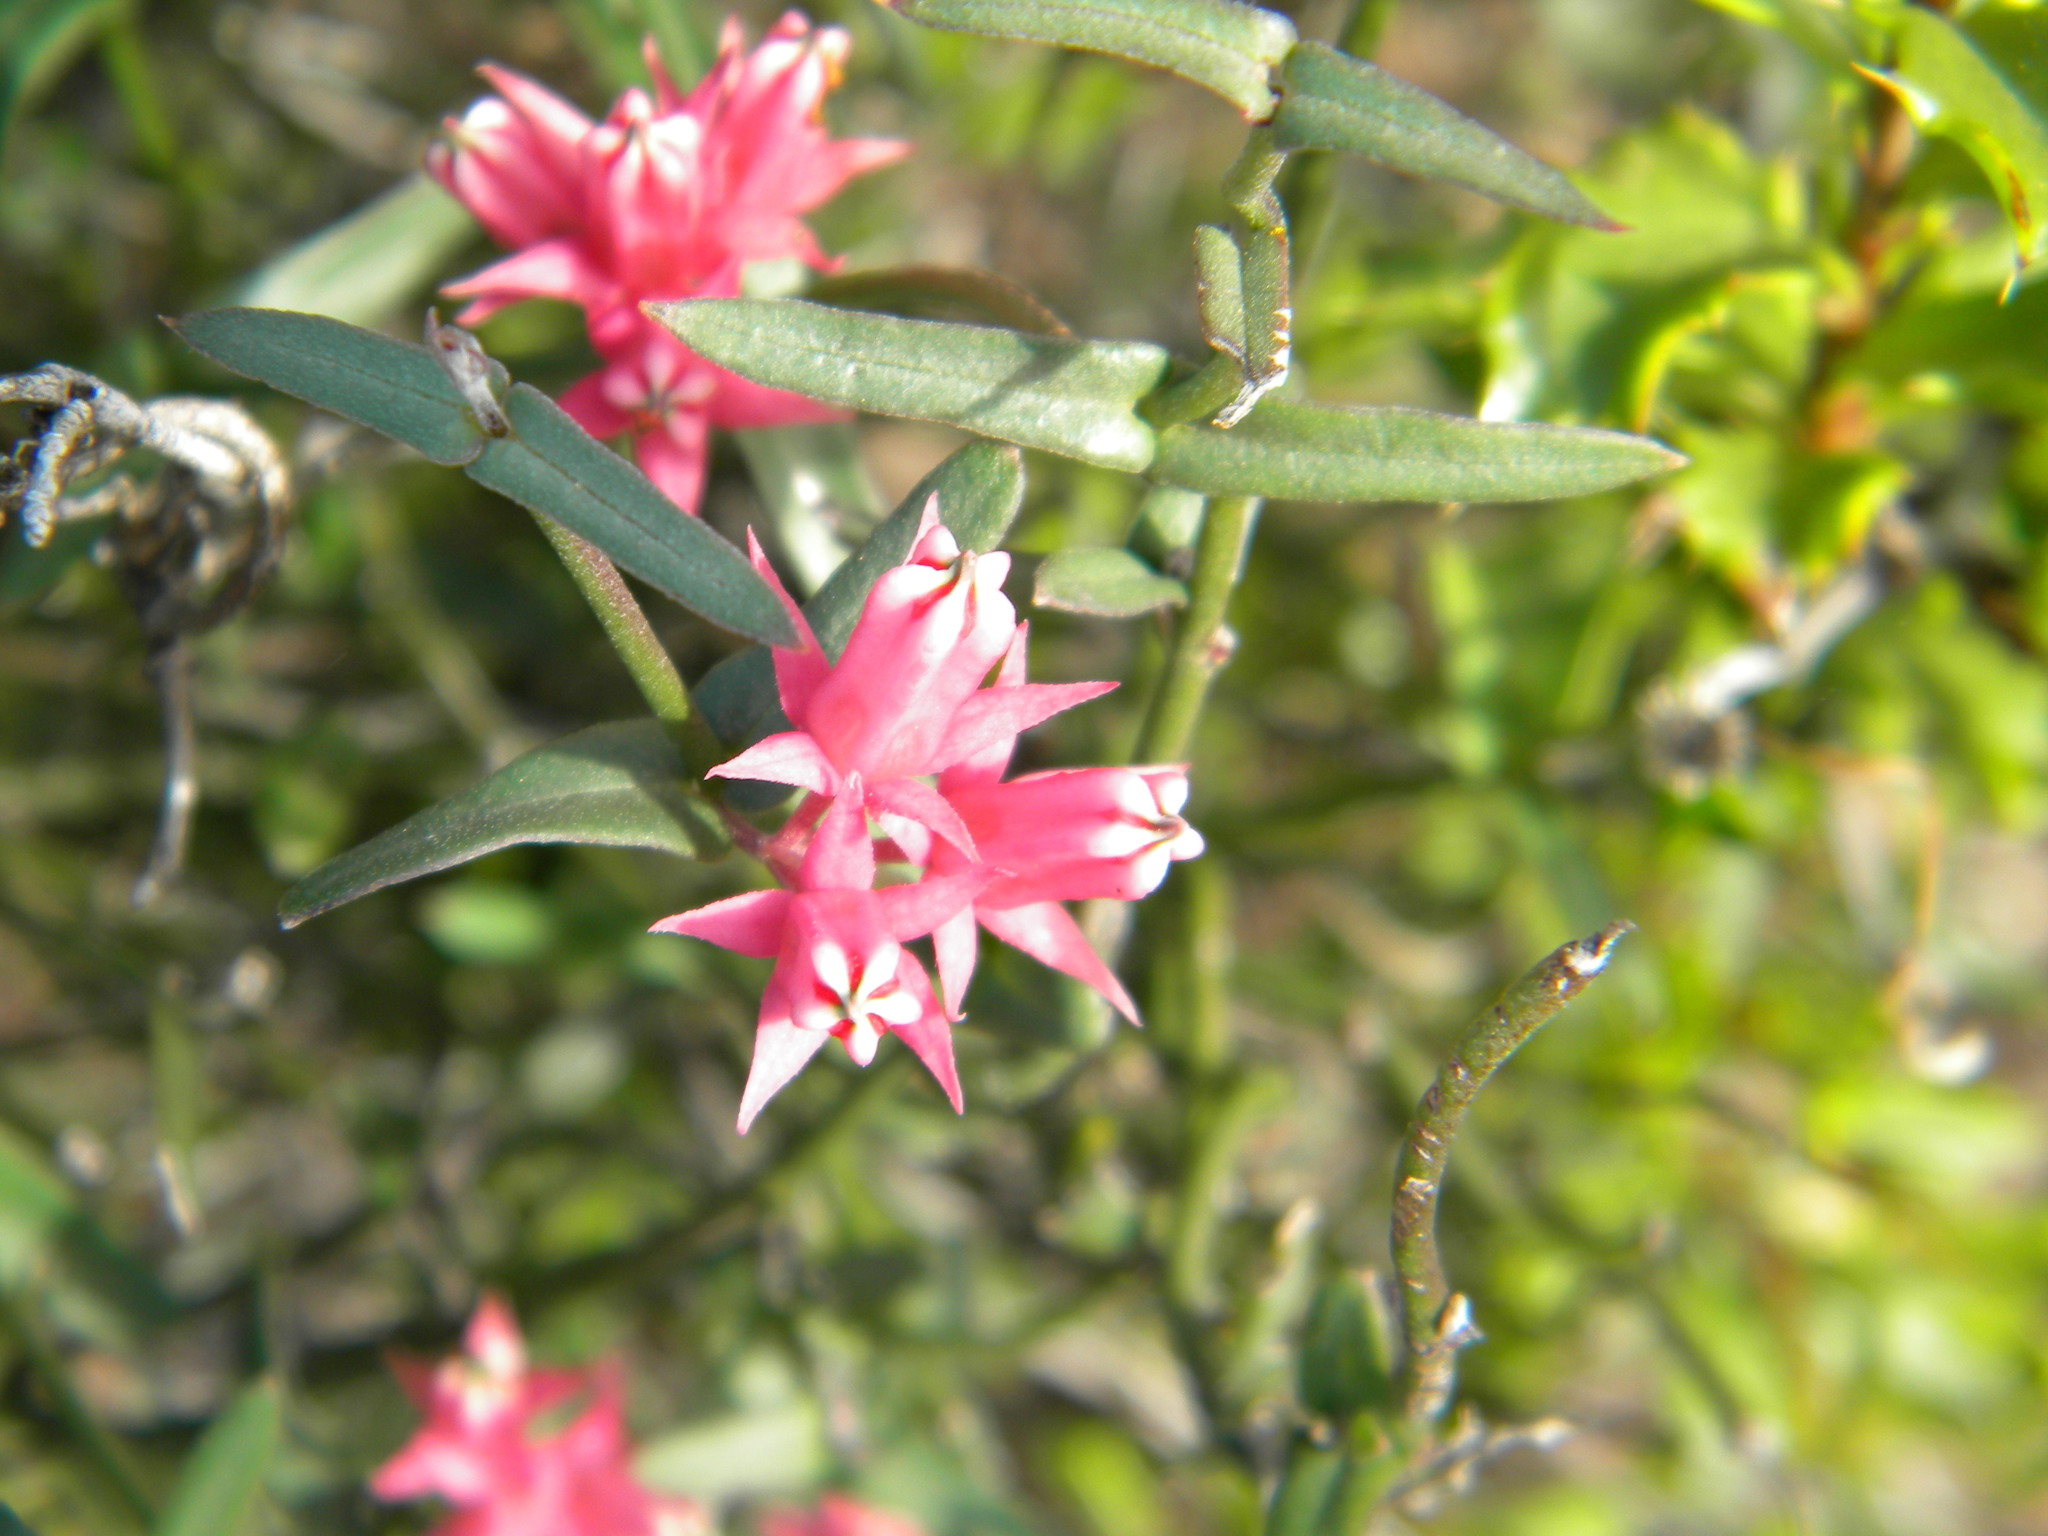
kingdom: Plantae
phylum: Tracheophyta
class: Magnoliopsida
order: Gentianales
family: Apocynaceae
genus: Microloma
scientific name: Microloma sagittatum
